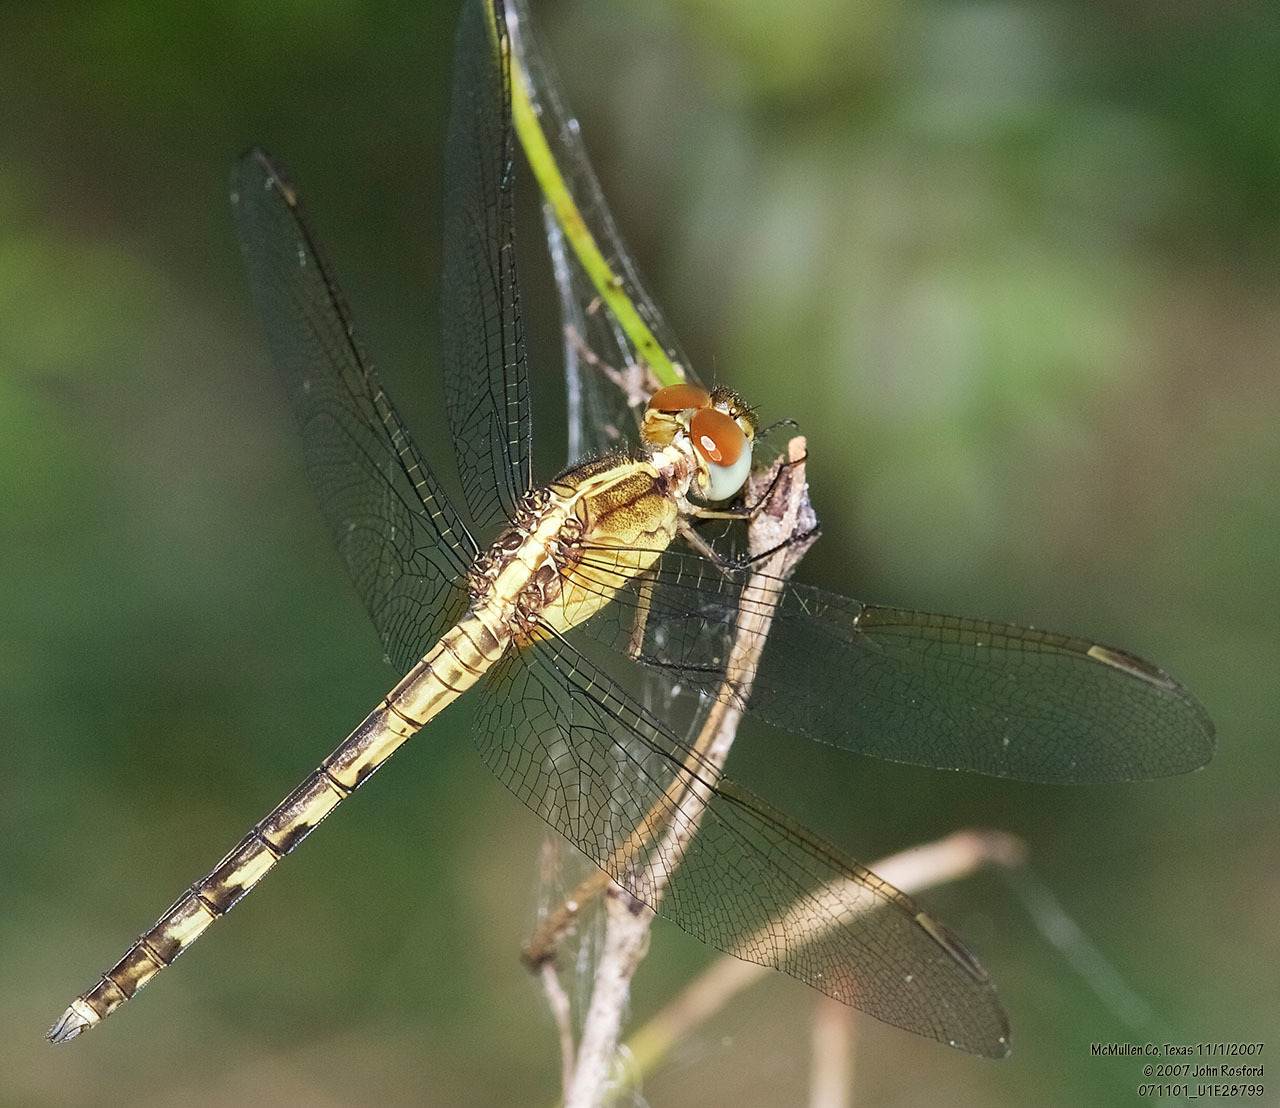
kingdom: Animalia
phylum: Arthropoda
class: Insecta
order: Odonata
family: Libellulidae
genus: Erythrodiplax
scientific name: Erythrodiplax umbrata
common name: Band-winged dragonlet
